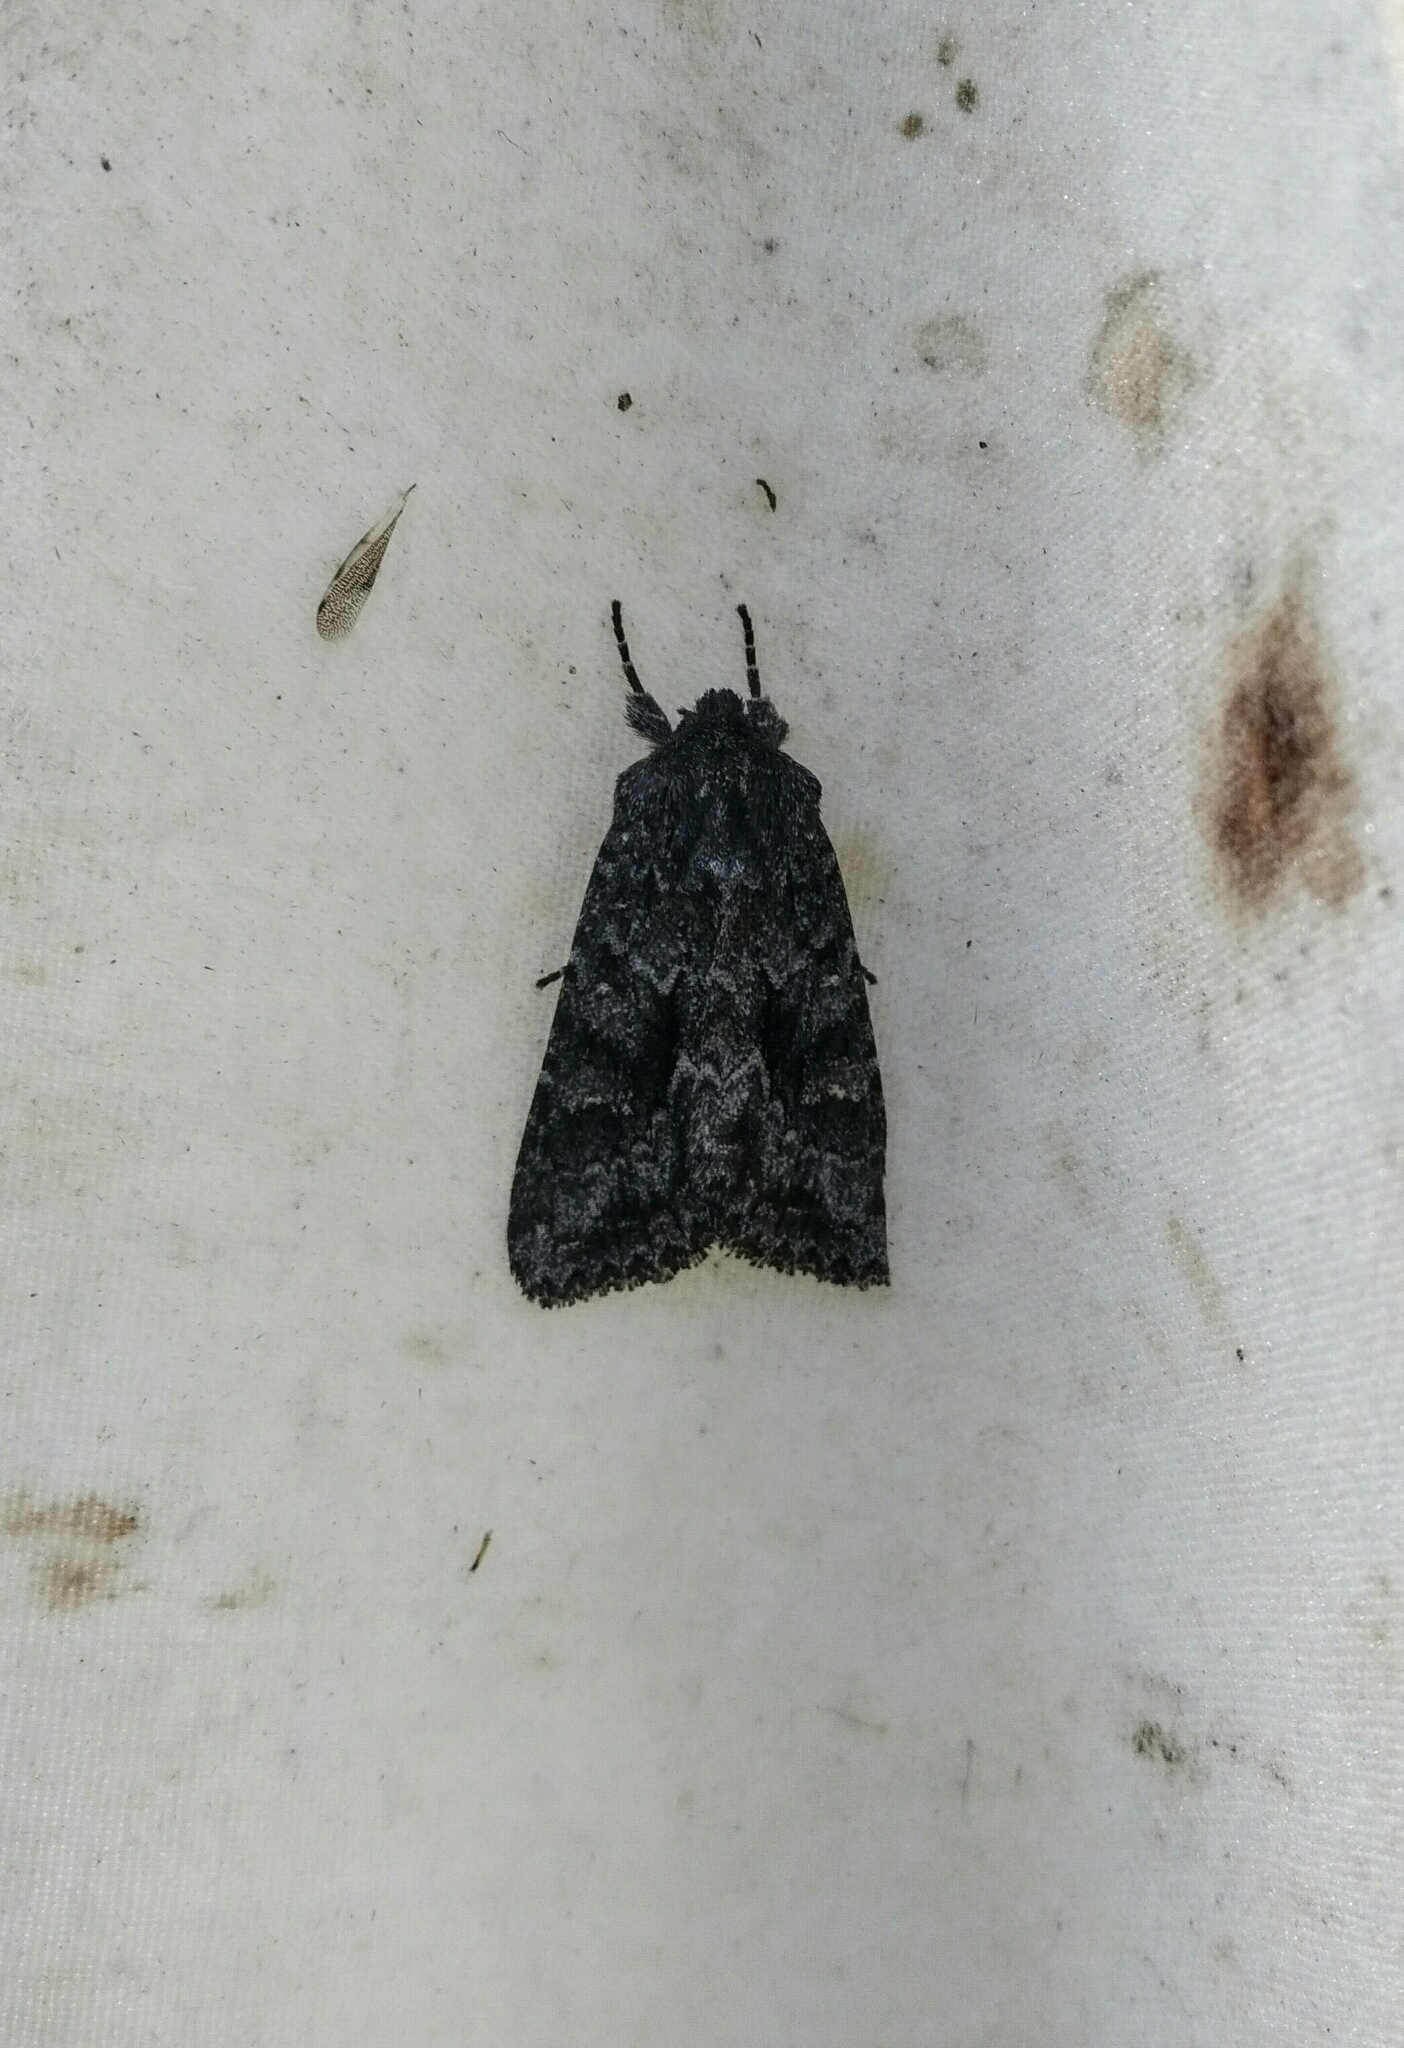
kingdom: Animalia
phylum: Arthropoda
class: Insecta
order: Lepidoptera
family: Noctuidae
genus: Sutyna
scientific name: Sutyna privata
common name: Private sallow
